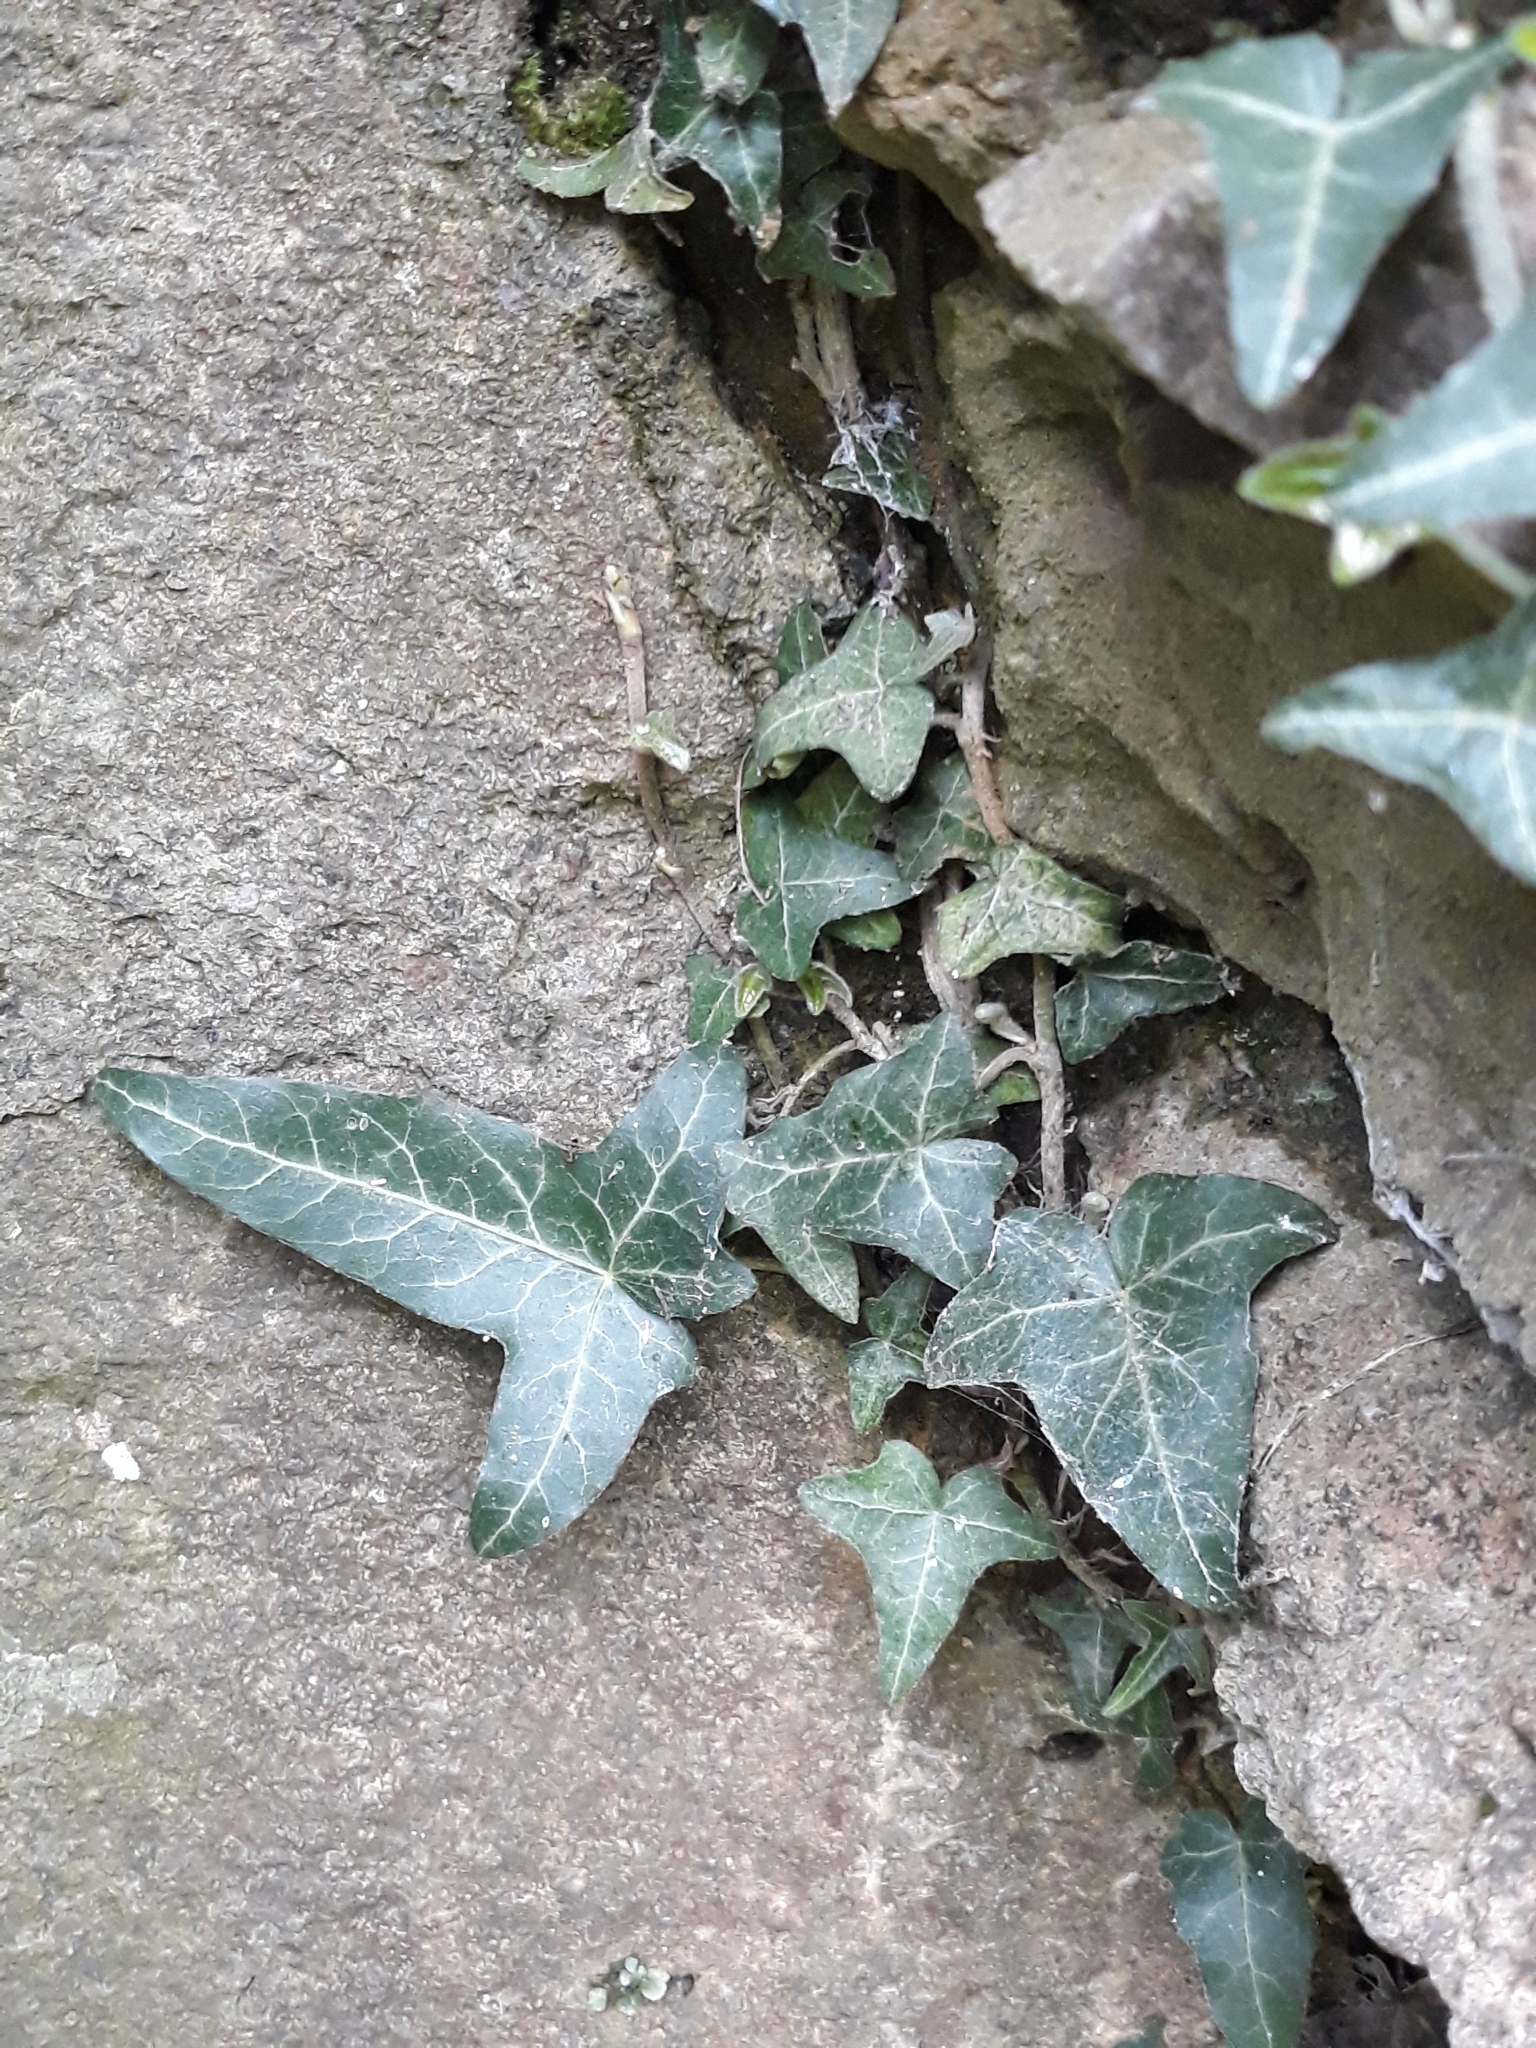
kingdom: Plantae
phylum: Tracheophyta
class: Magnoliopsida
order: Apiales
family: Araliaceae
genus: Hedera
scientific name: Hedera helix
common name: Ivy
